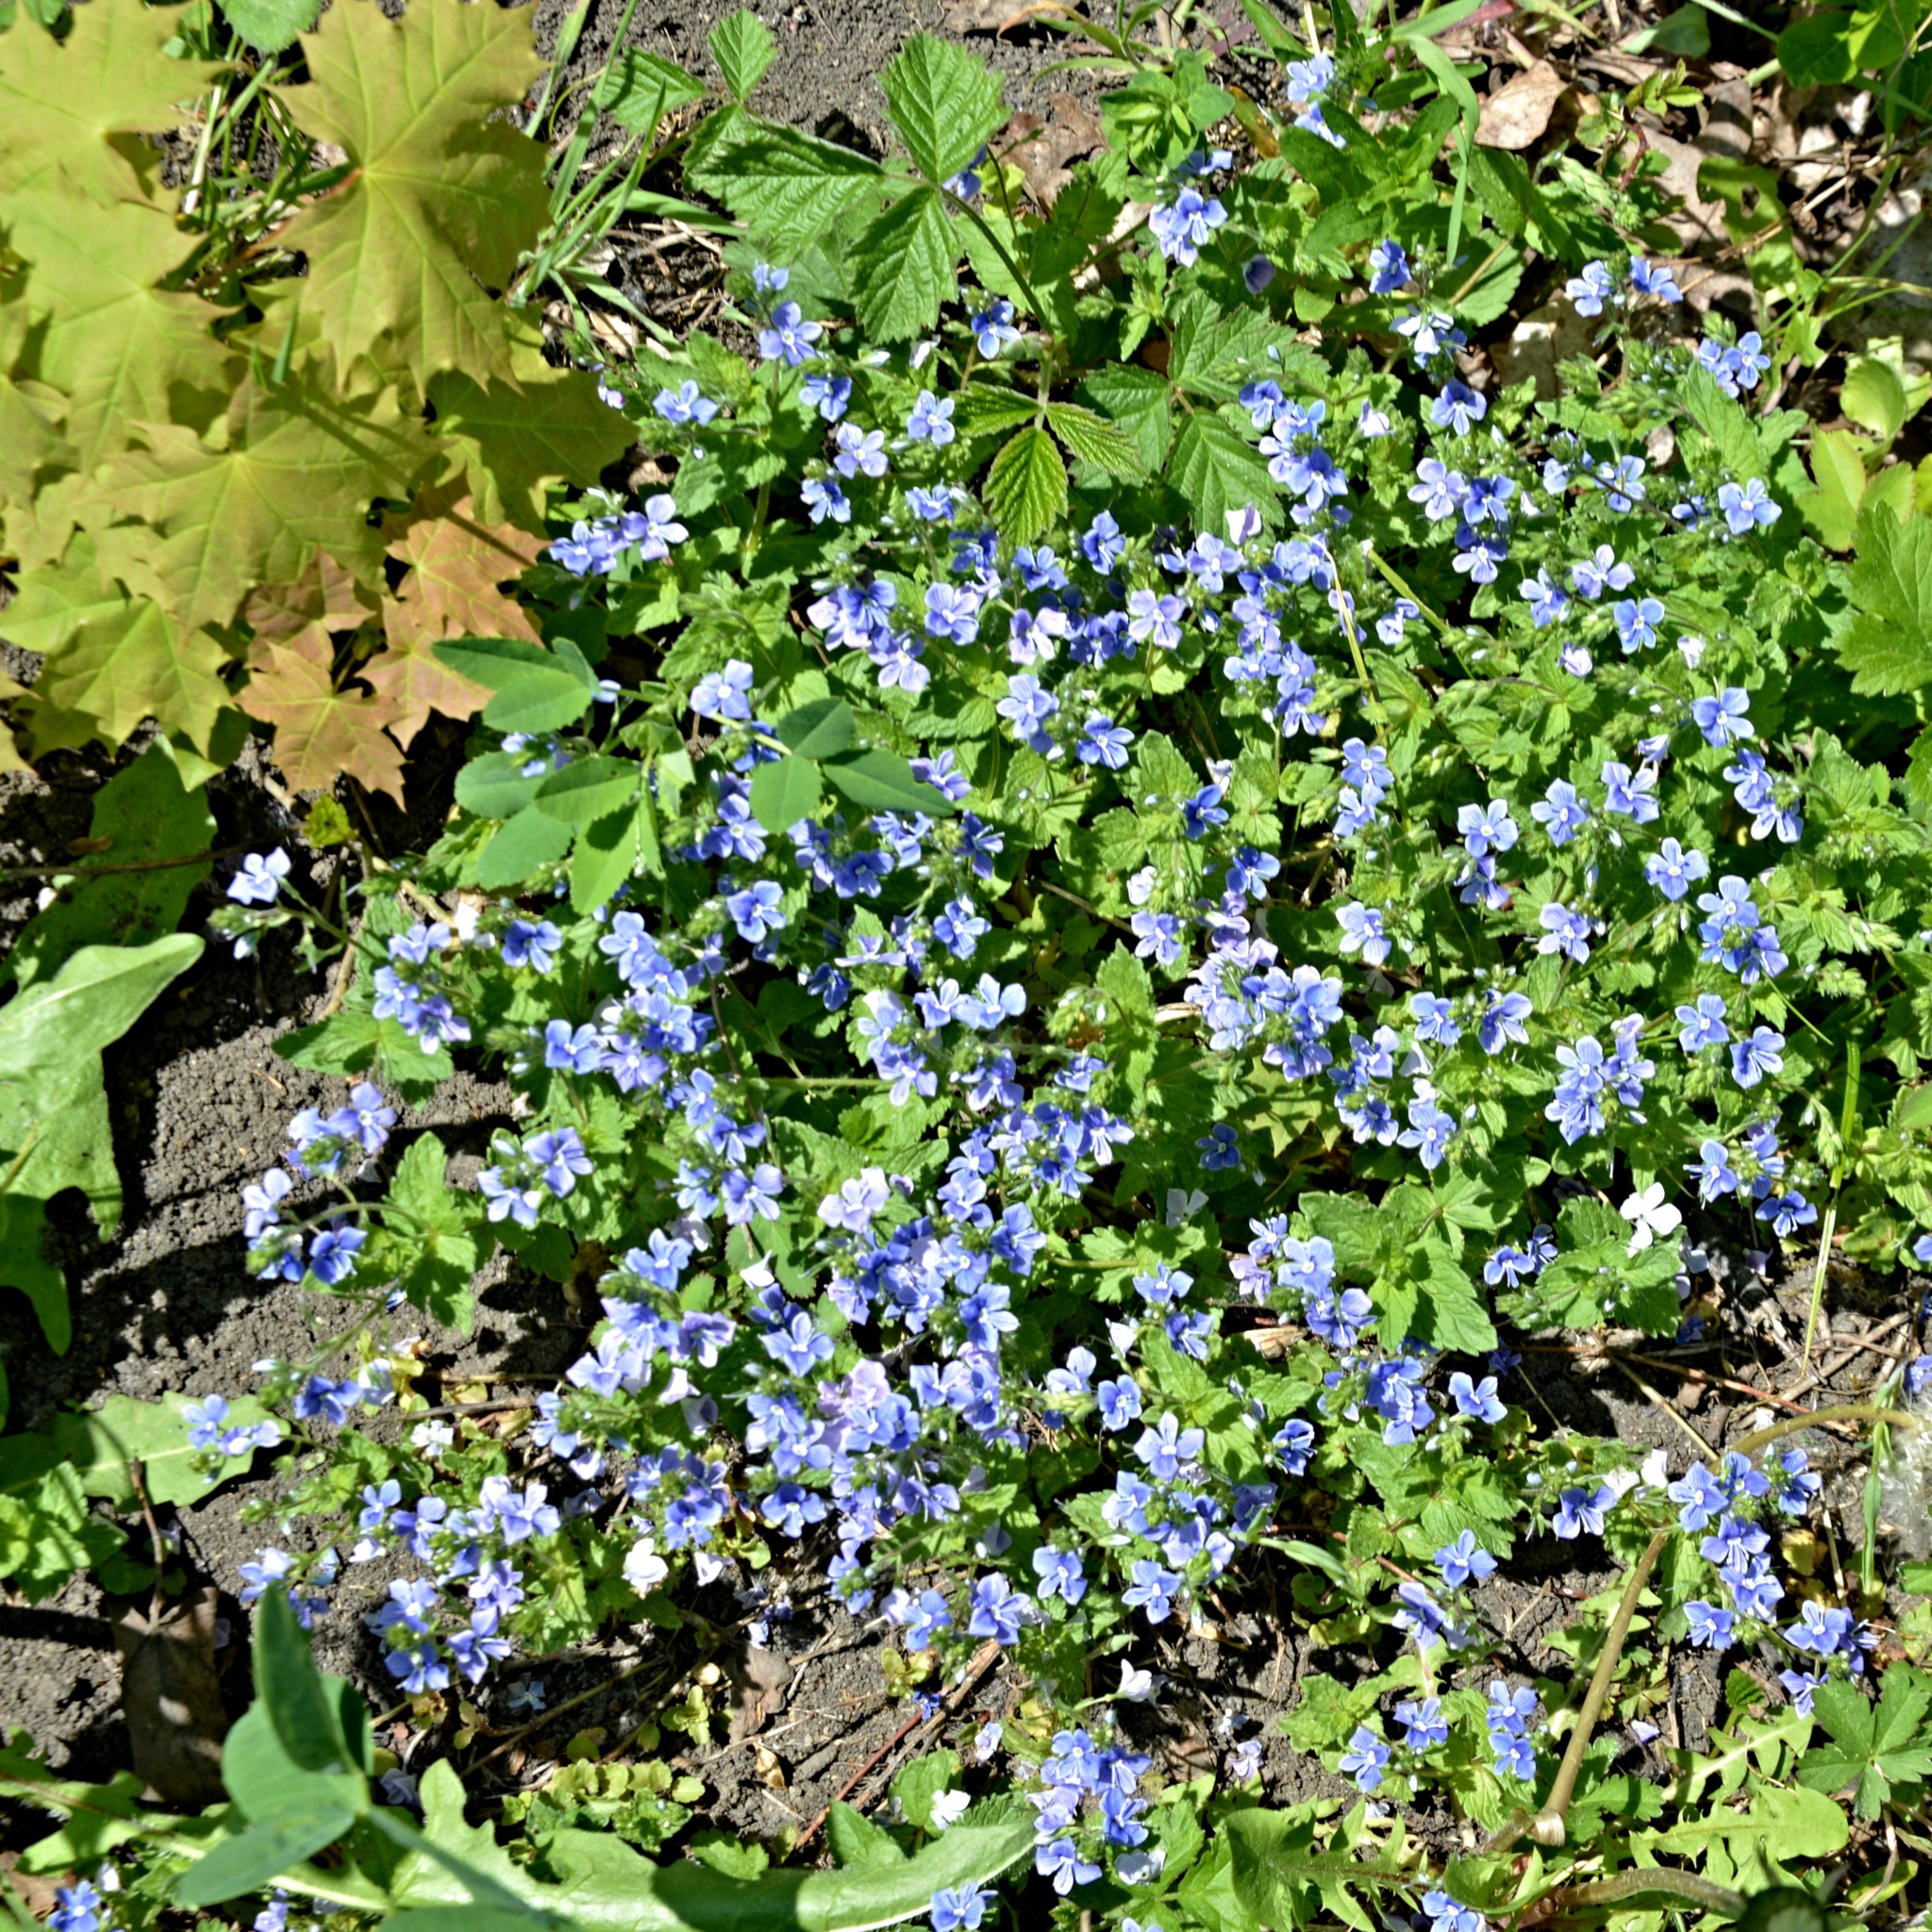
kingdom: Plantae
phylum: Tracheophyta
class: Magnoliopsida
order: Lamiales
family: Plantaginaceae
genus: Veronica
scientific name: Veronica chamaedrys
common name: Germander speedwell
